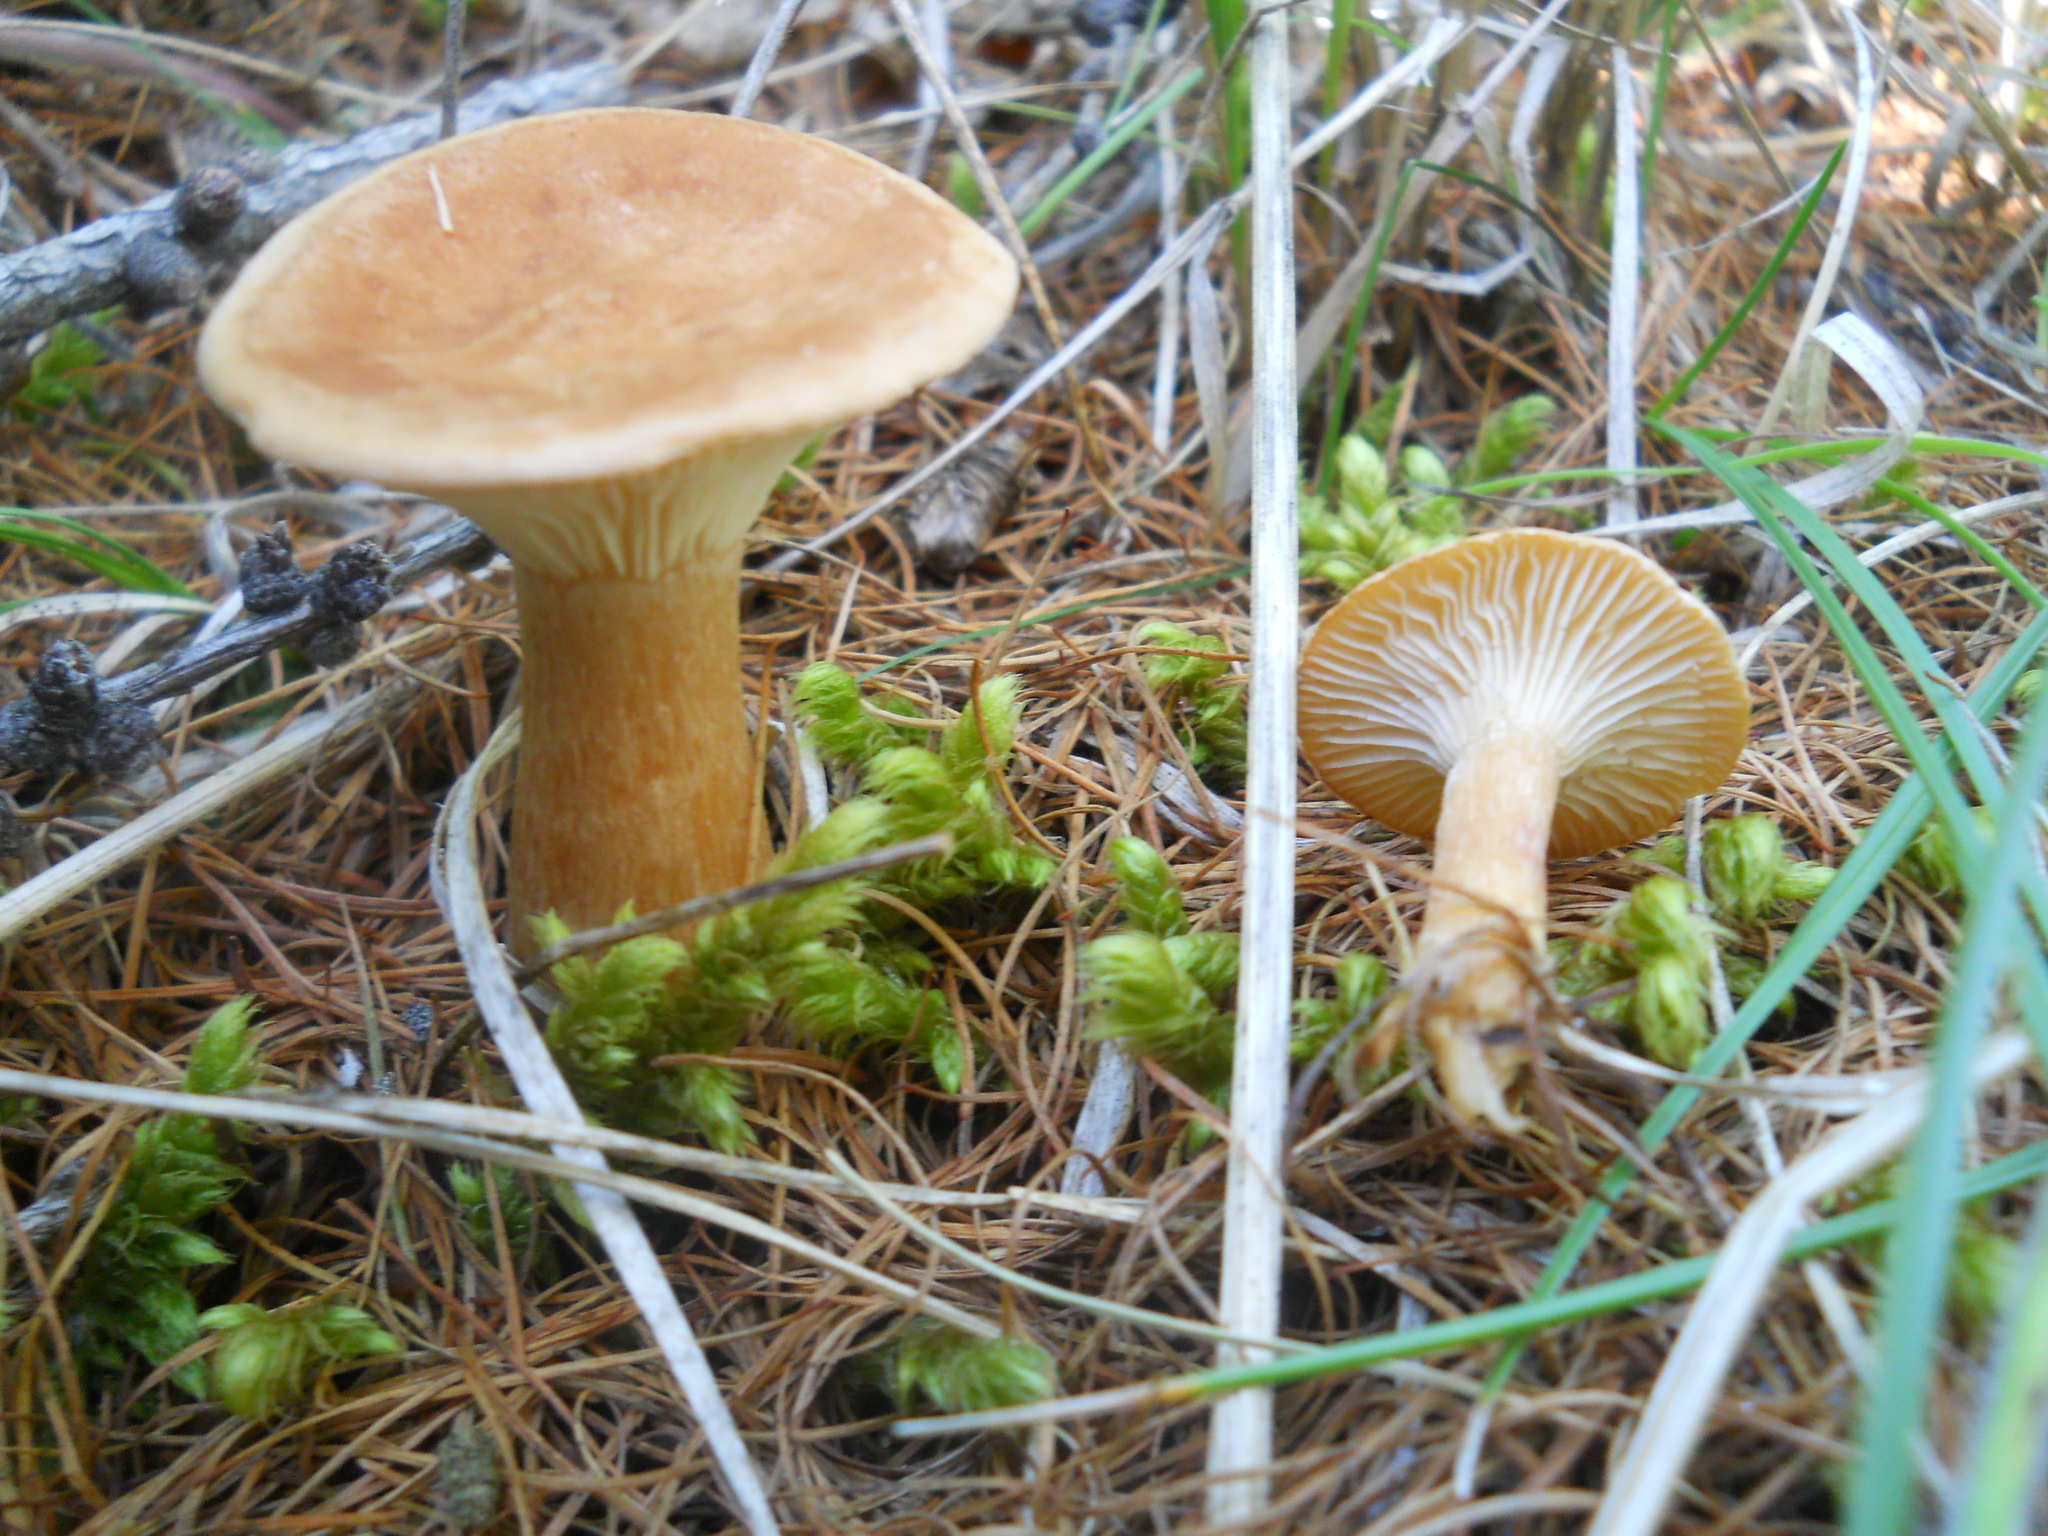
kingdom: Fungi
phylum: Basidiomycota
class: Agaricomycetes
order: Agaricales
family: Tricholomataceae
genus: Infundibulicybe
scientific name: Infundibulicybe geotropa
